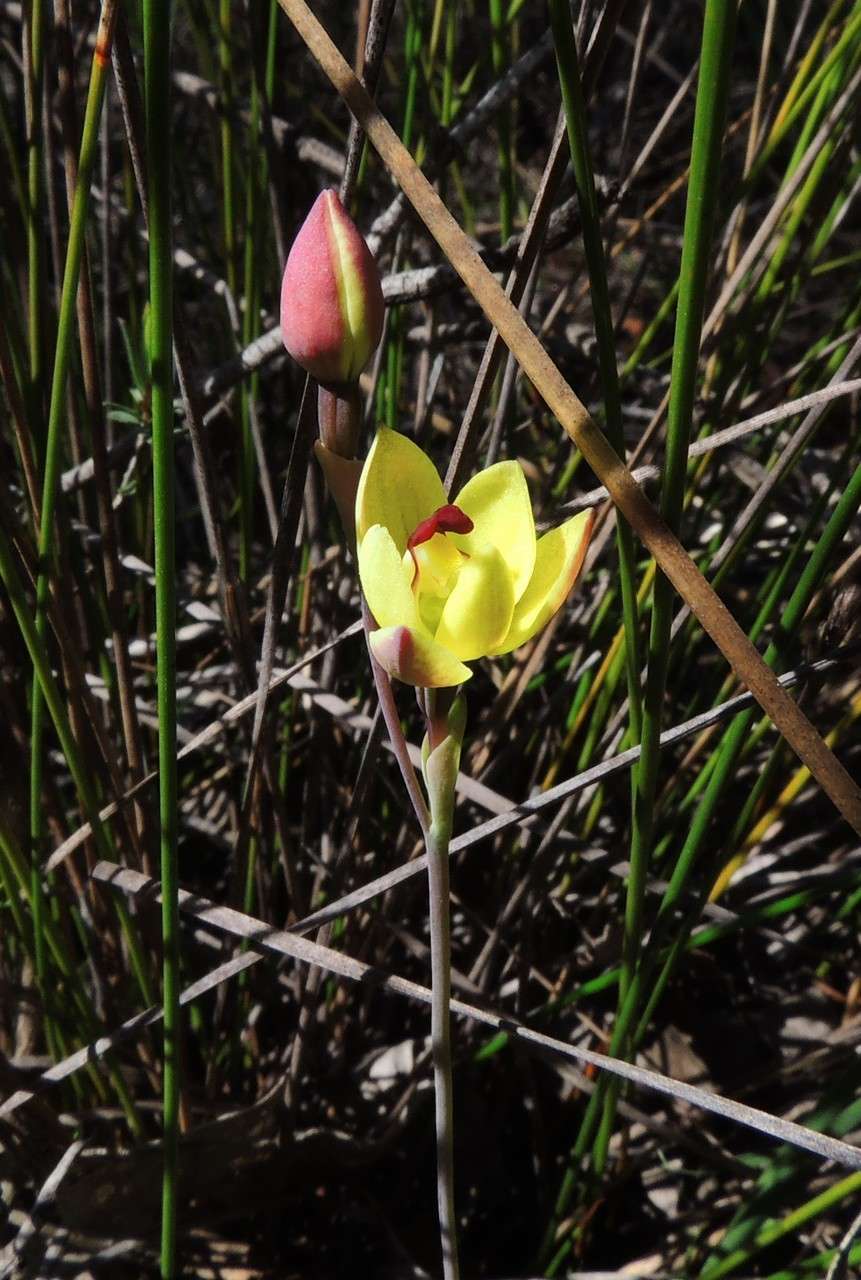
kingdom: Plantae
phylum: Tracheophyta
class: Liliopsida
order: Asparagales
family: Orchidaceae
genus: Thelymitra
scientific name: Thelymitra antennifera
